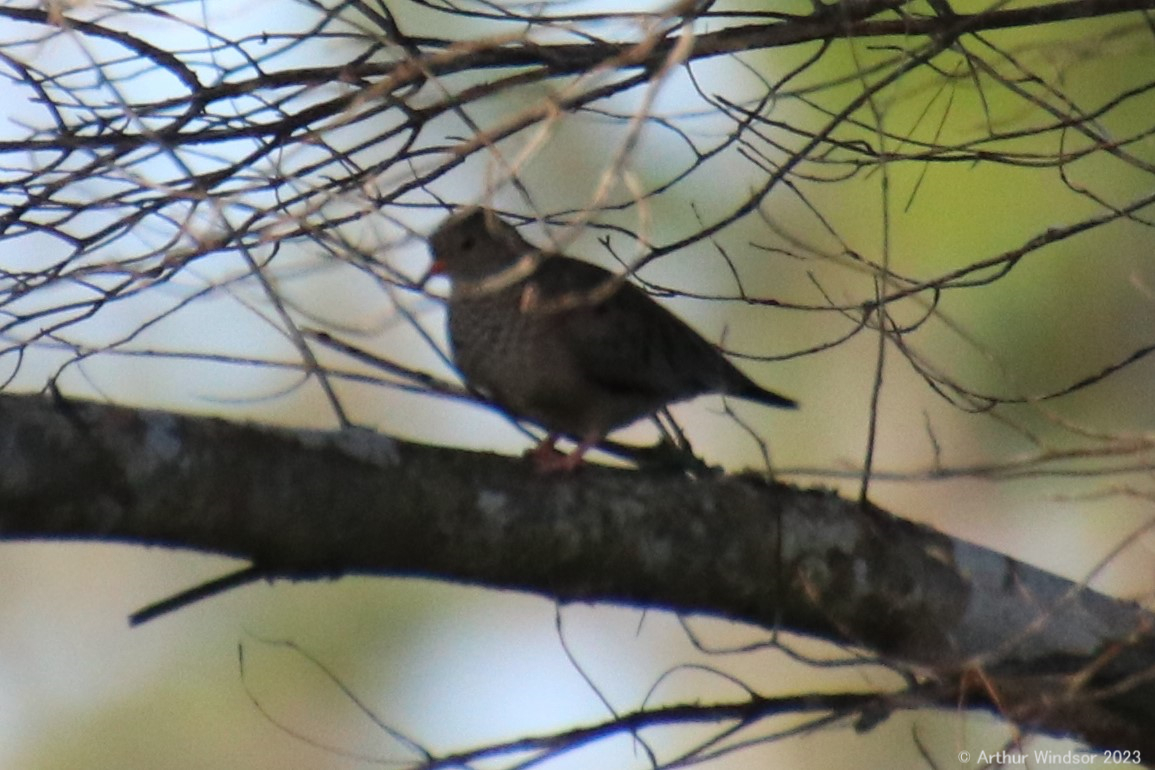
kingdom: Animalia
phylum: Chordata
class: Aves
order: Columbiformes
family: Columbidae
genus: Columbina
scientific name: Columbina passerina
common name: Common ground-dove
